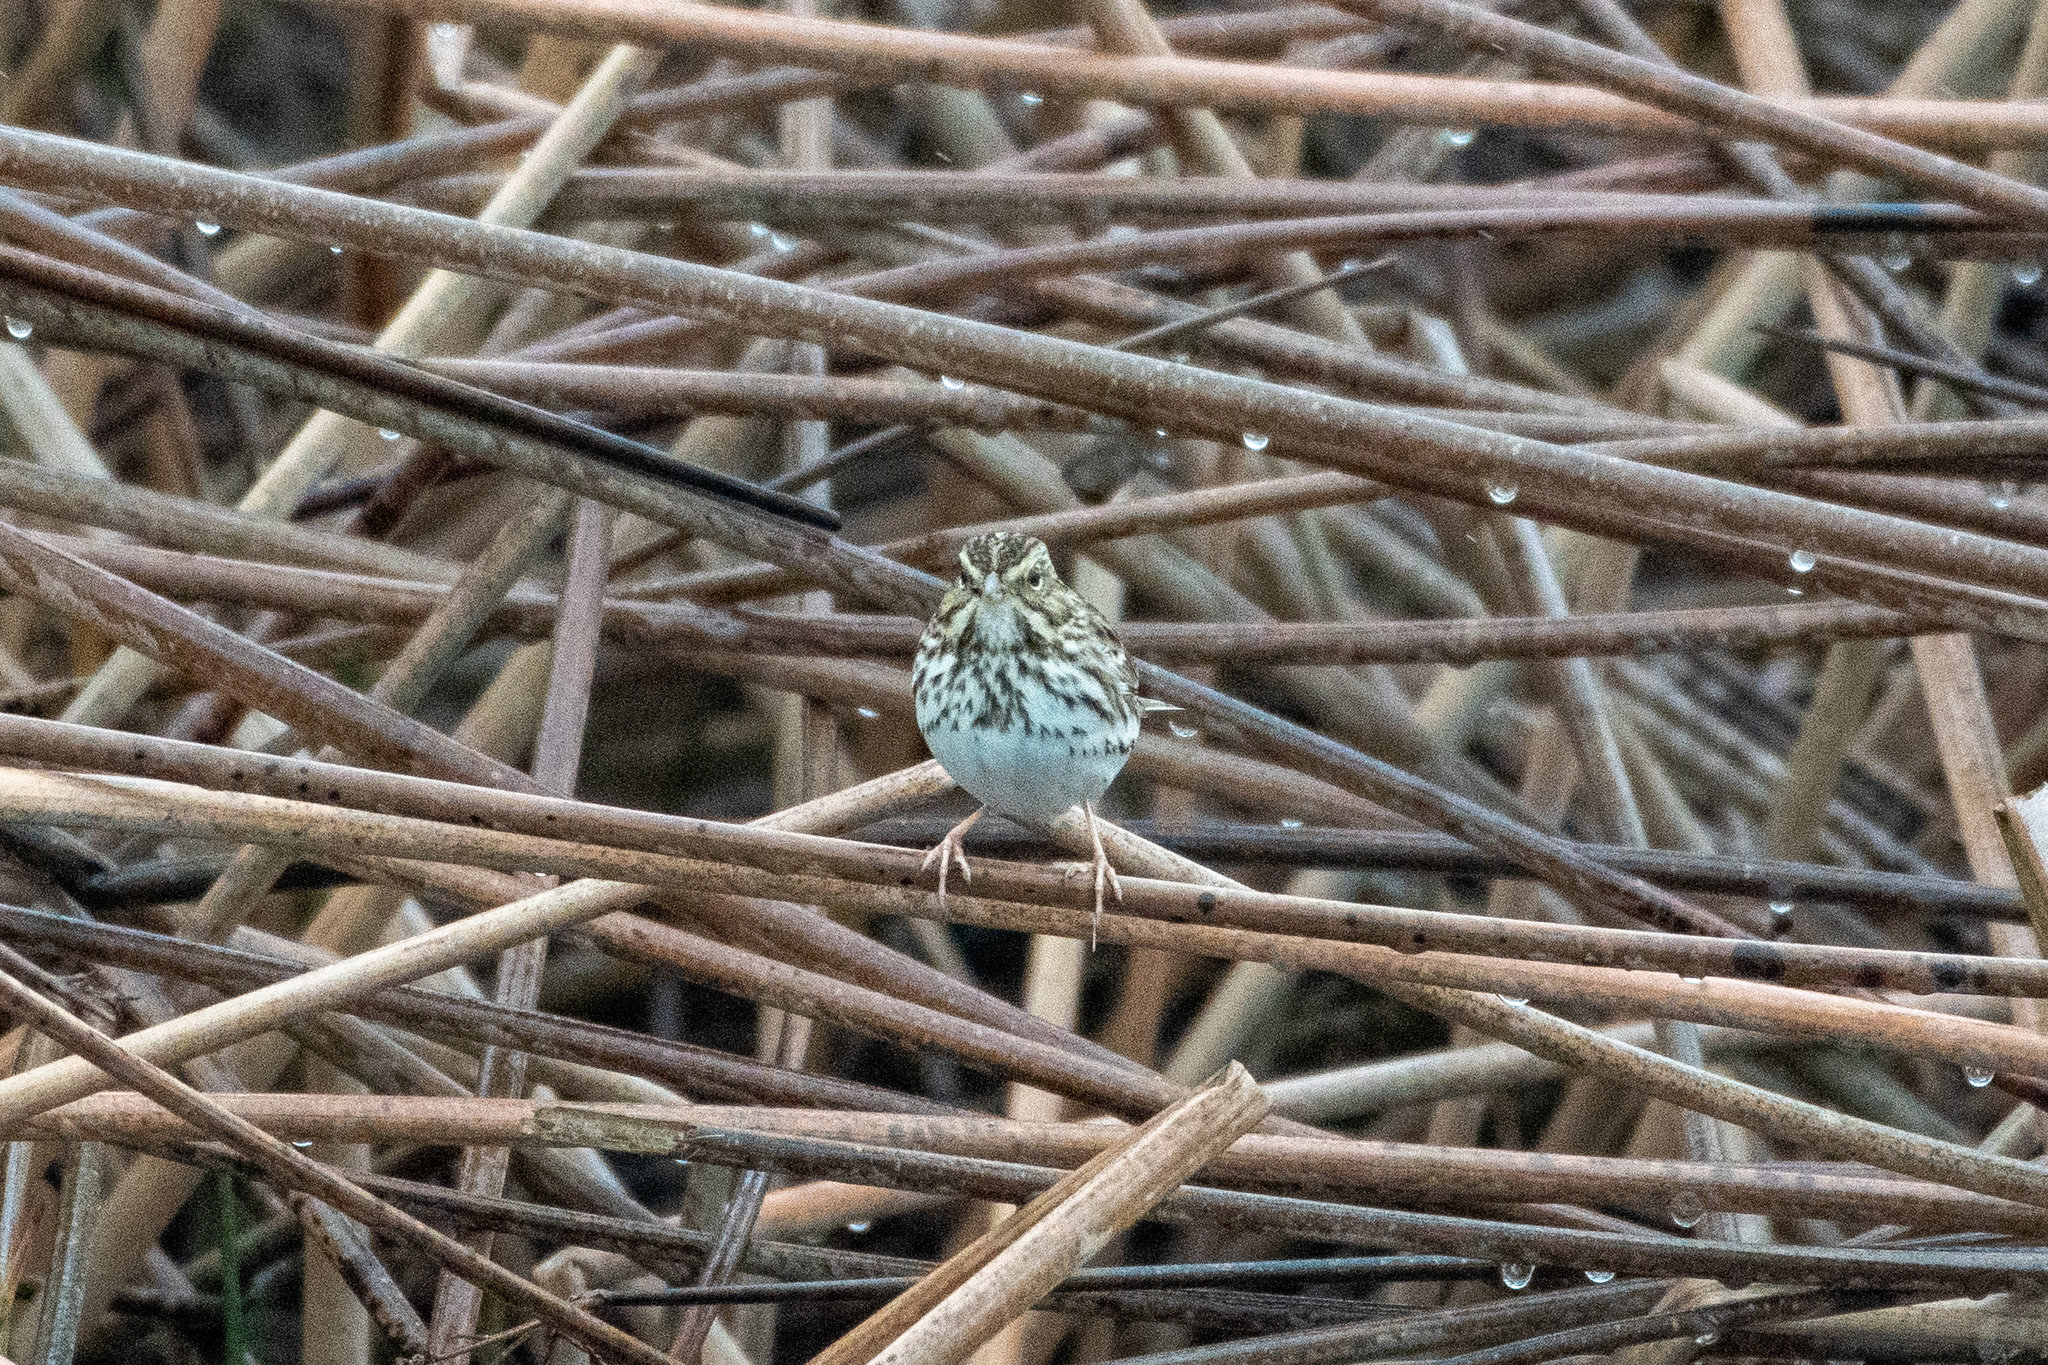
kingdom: Animalia
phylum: Chordata
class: Aves
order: Passeriformes
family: Passerellidae
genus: Passerculus
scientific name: Passerculus sandwichensis
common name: Savannah sparrow
